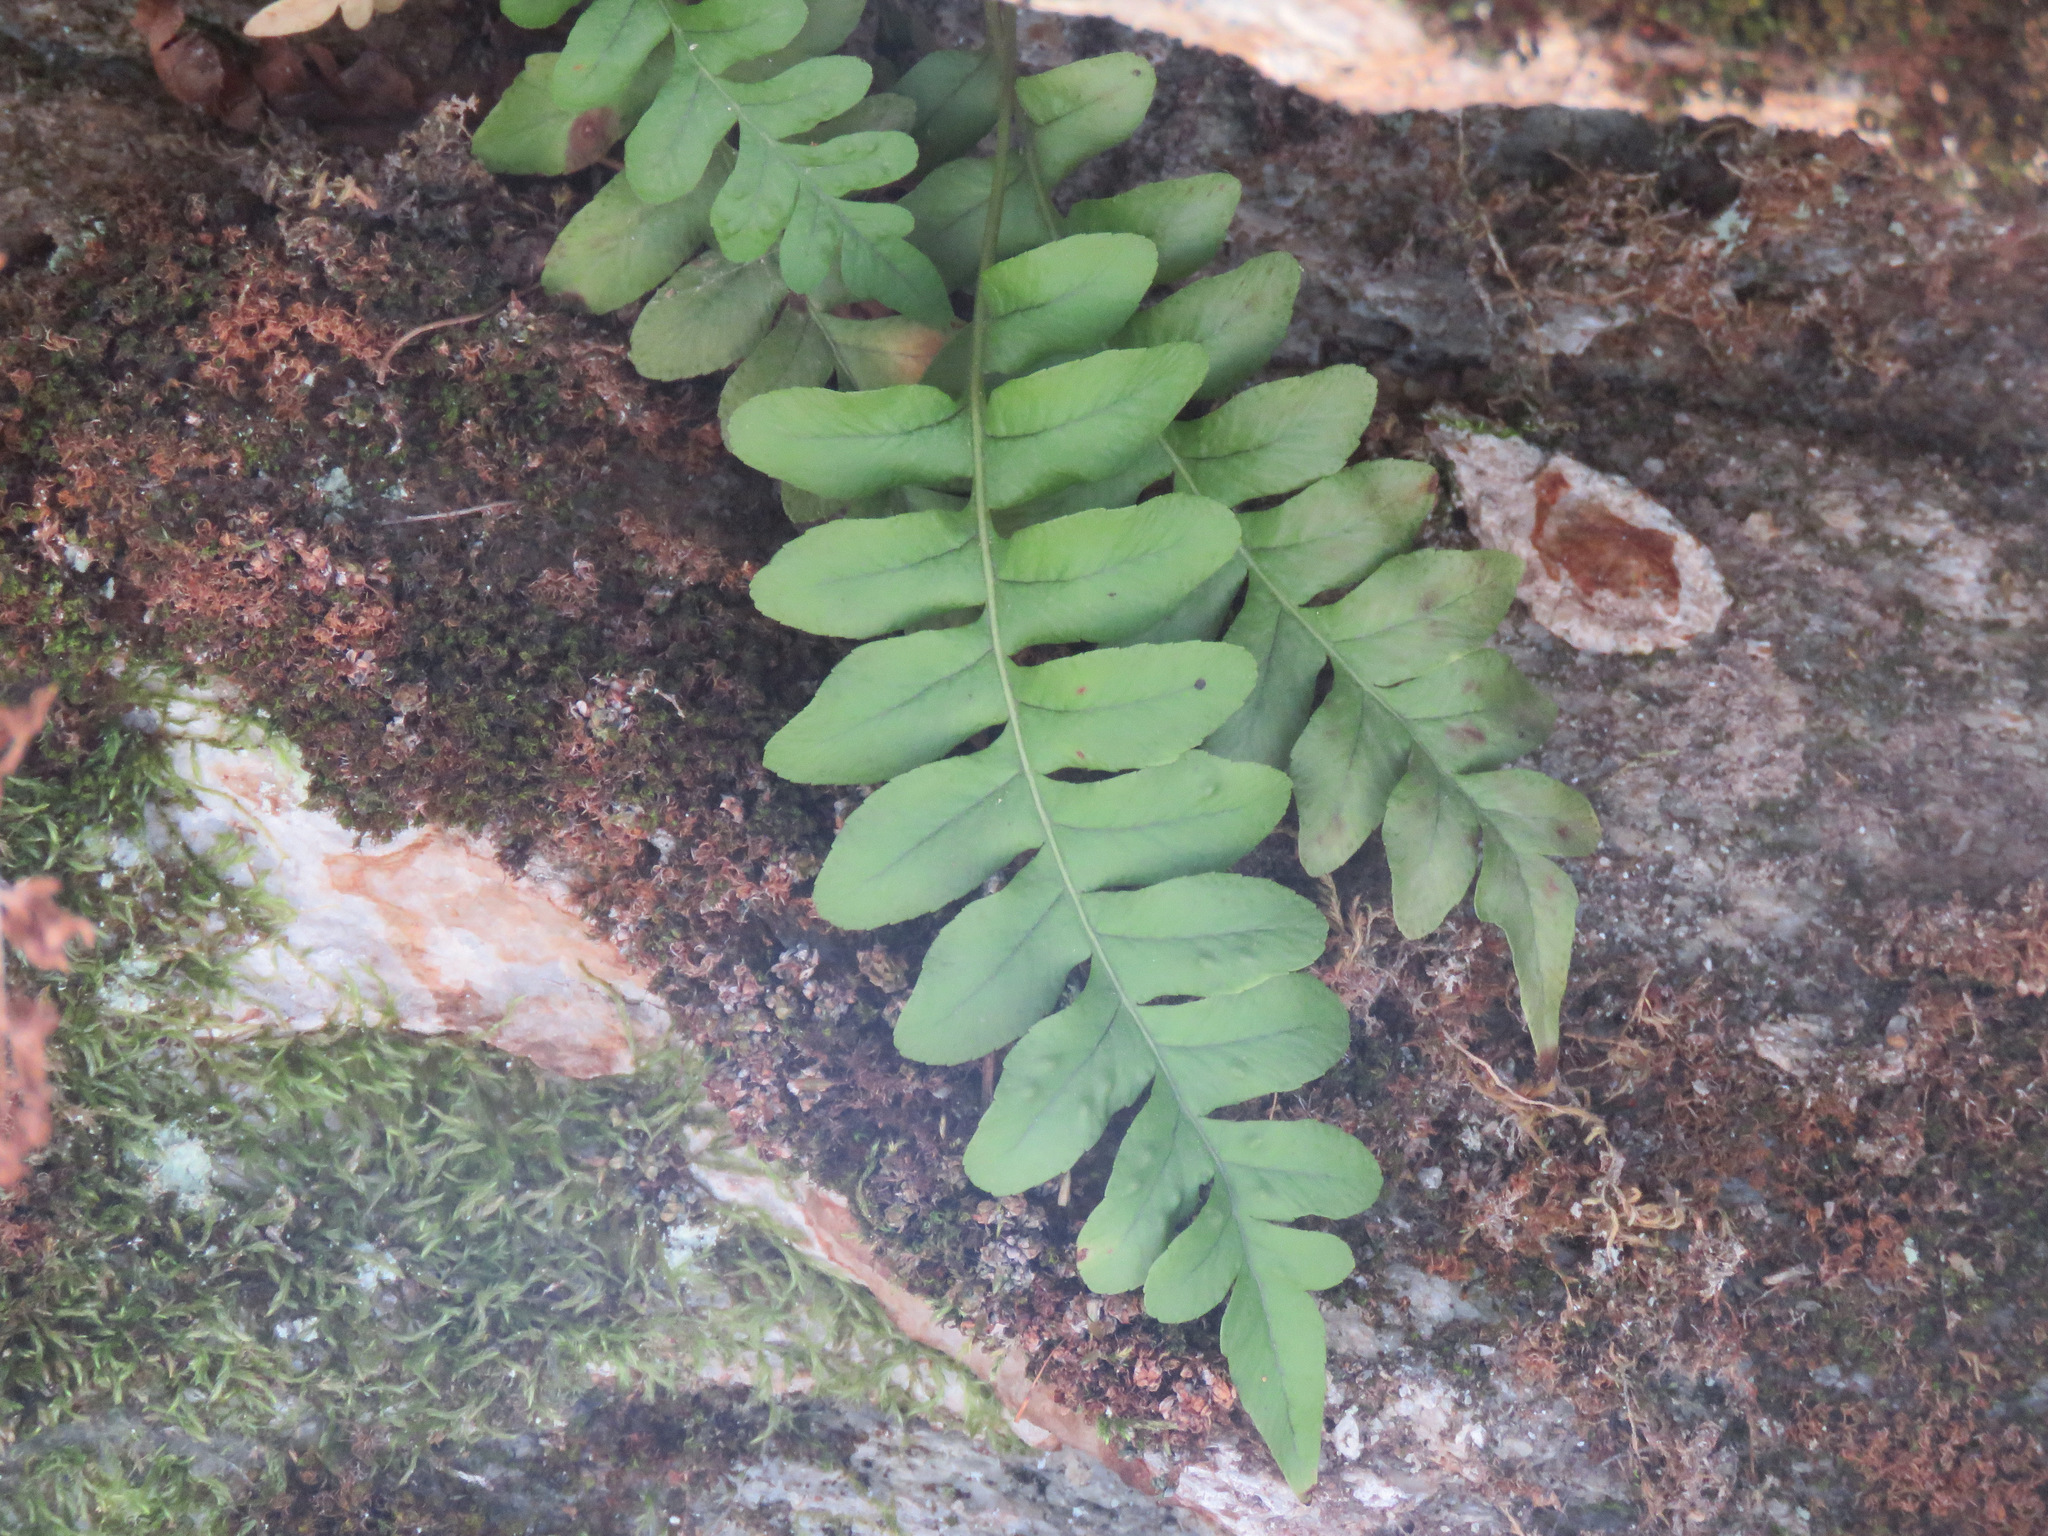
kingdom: Plantae
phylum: Tracheophyta
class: Polypodiopsida
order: Polypodiales
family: Polypodiaceae
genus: Polypodium
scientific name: Polypodium hesperium
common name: Western polypody
